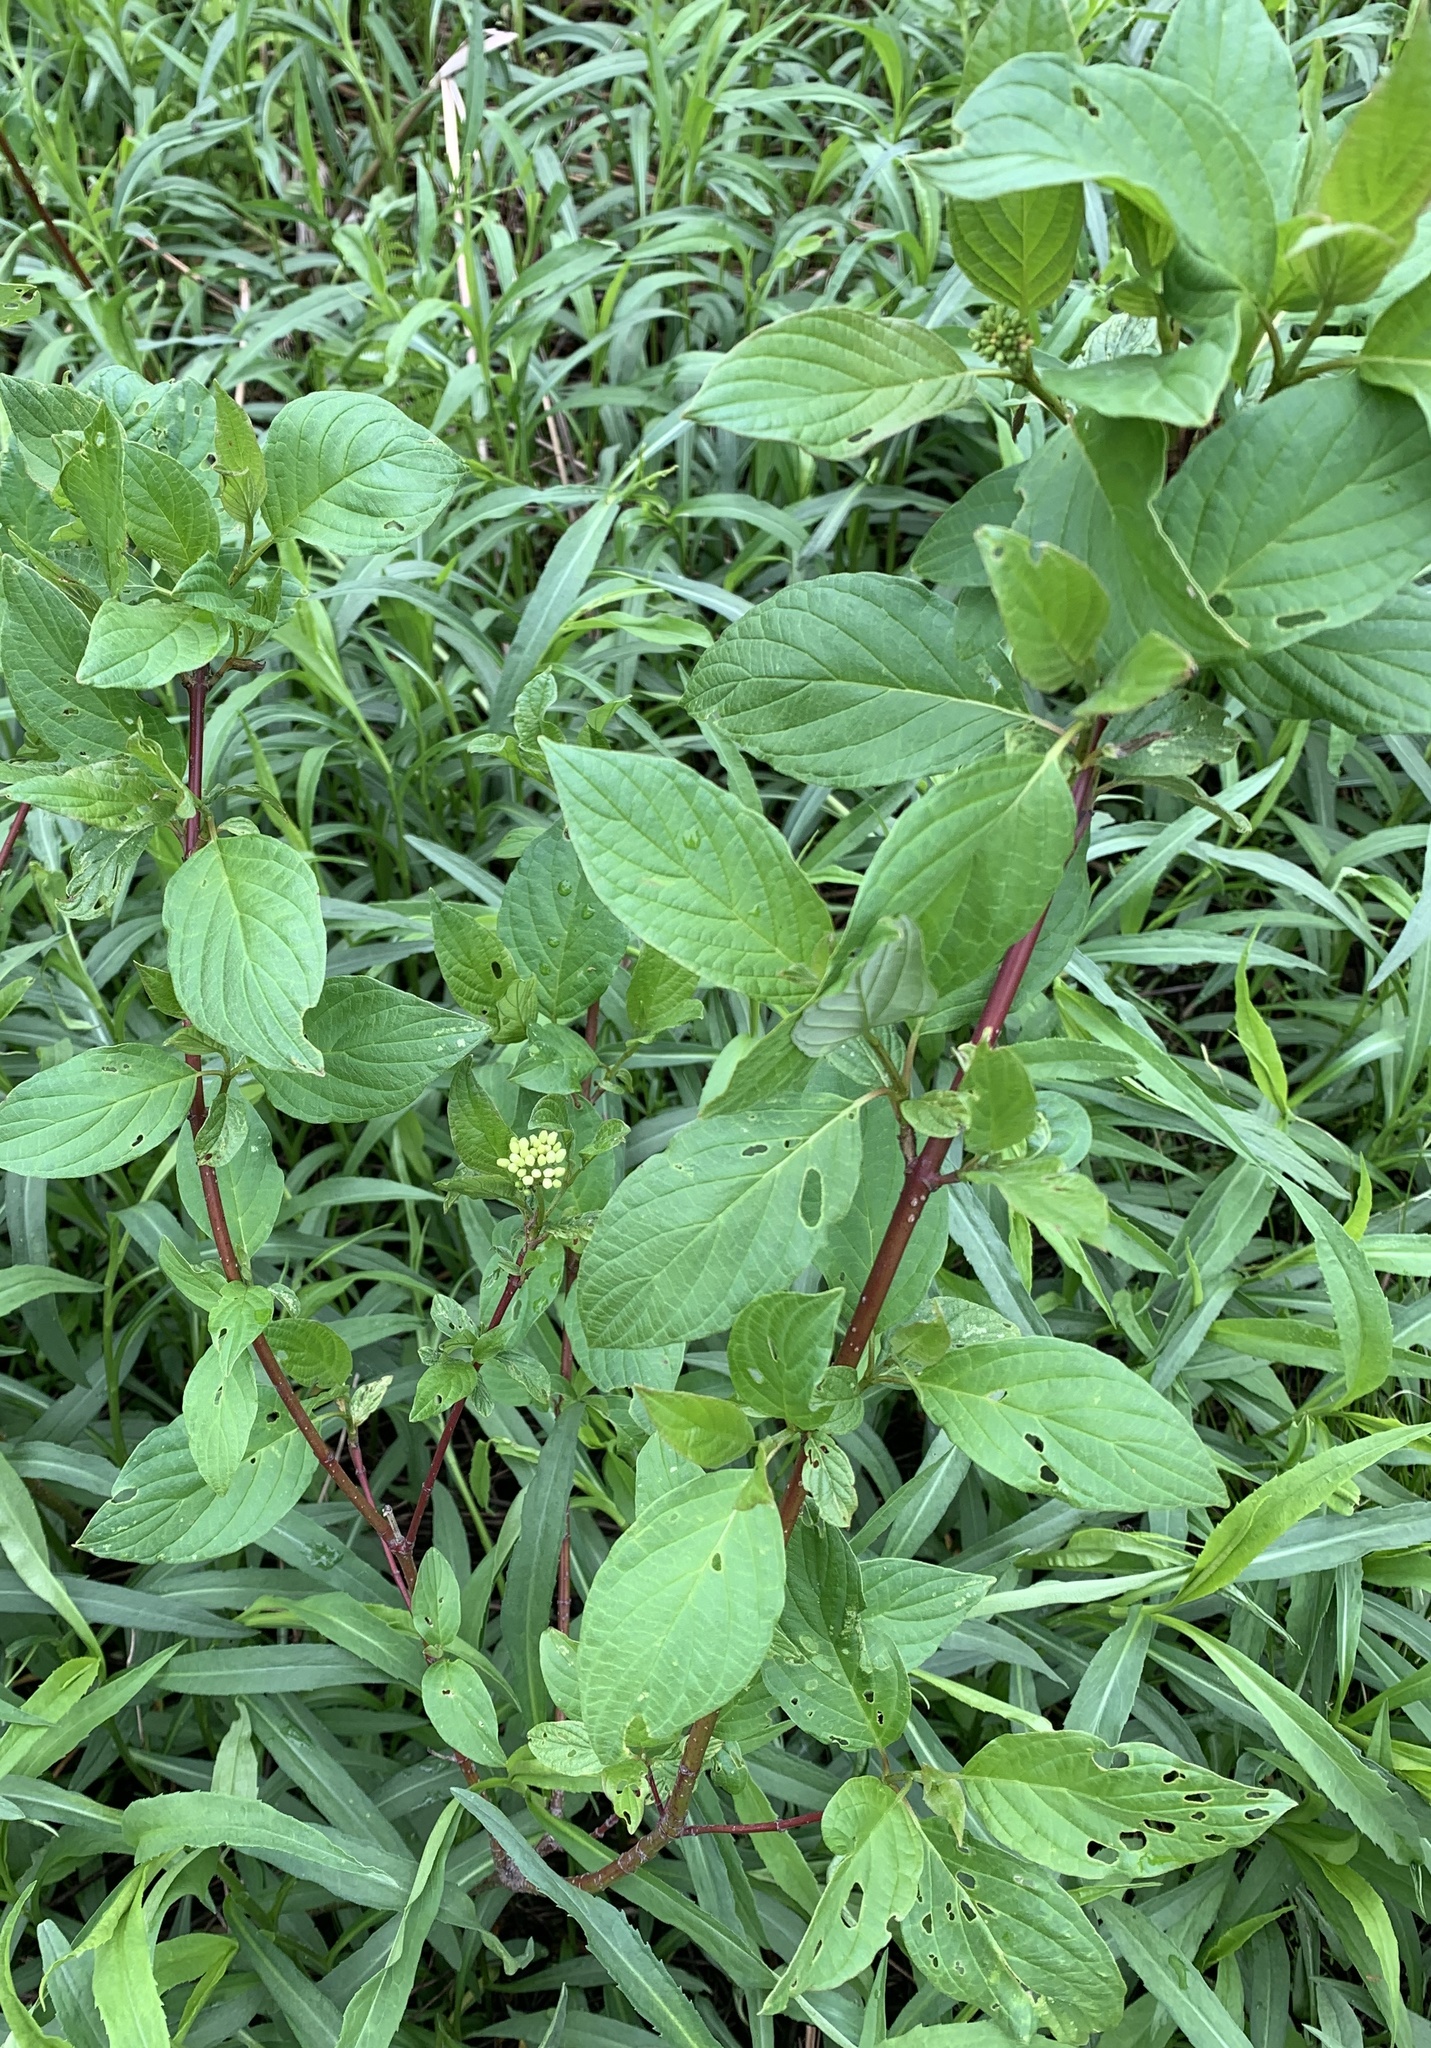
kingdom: Plantae
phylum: Tracheophyta
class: Magnoliopsida
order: Cornales
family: Cornaceae
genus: Cornus
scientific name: Cornus sericea
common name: Red-osier dogwood
